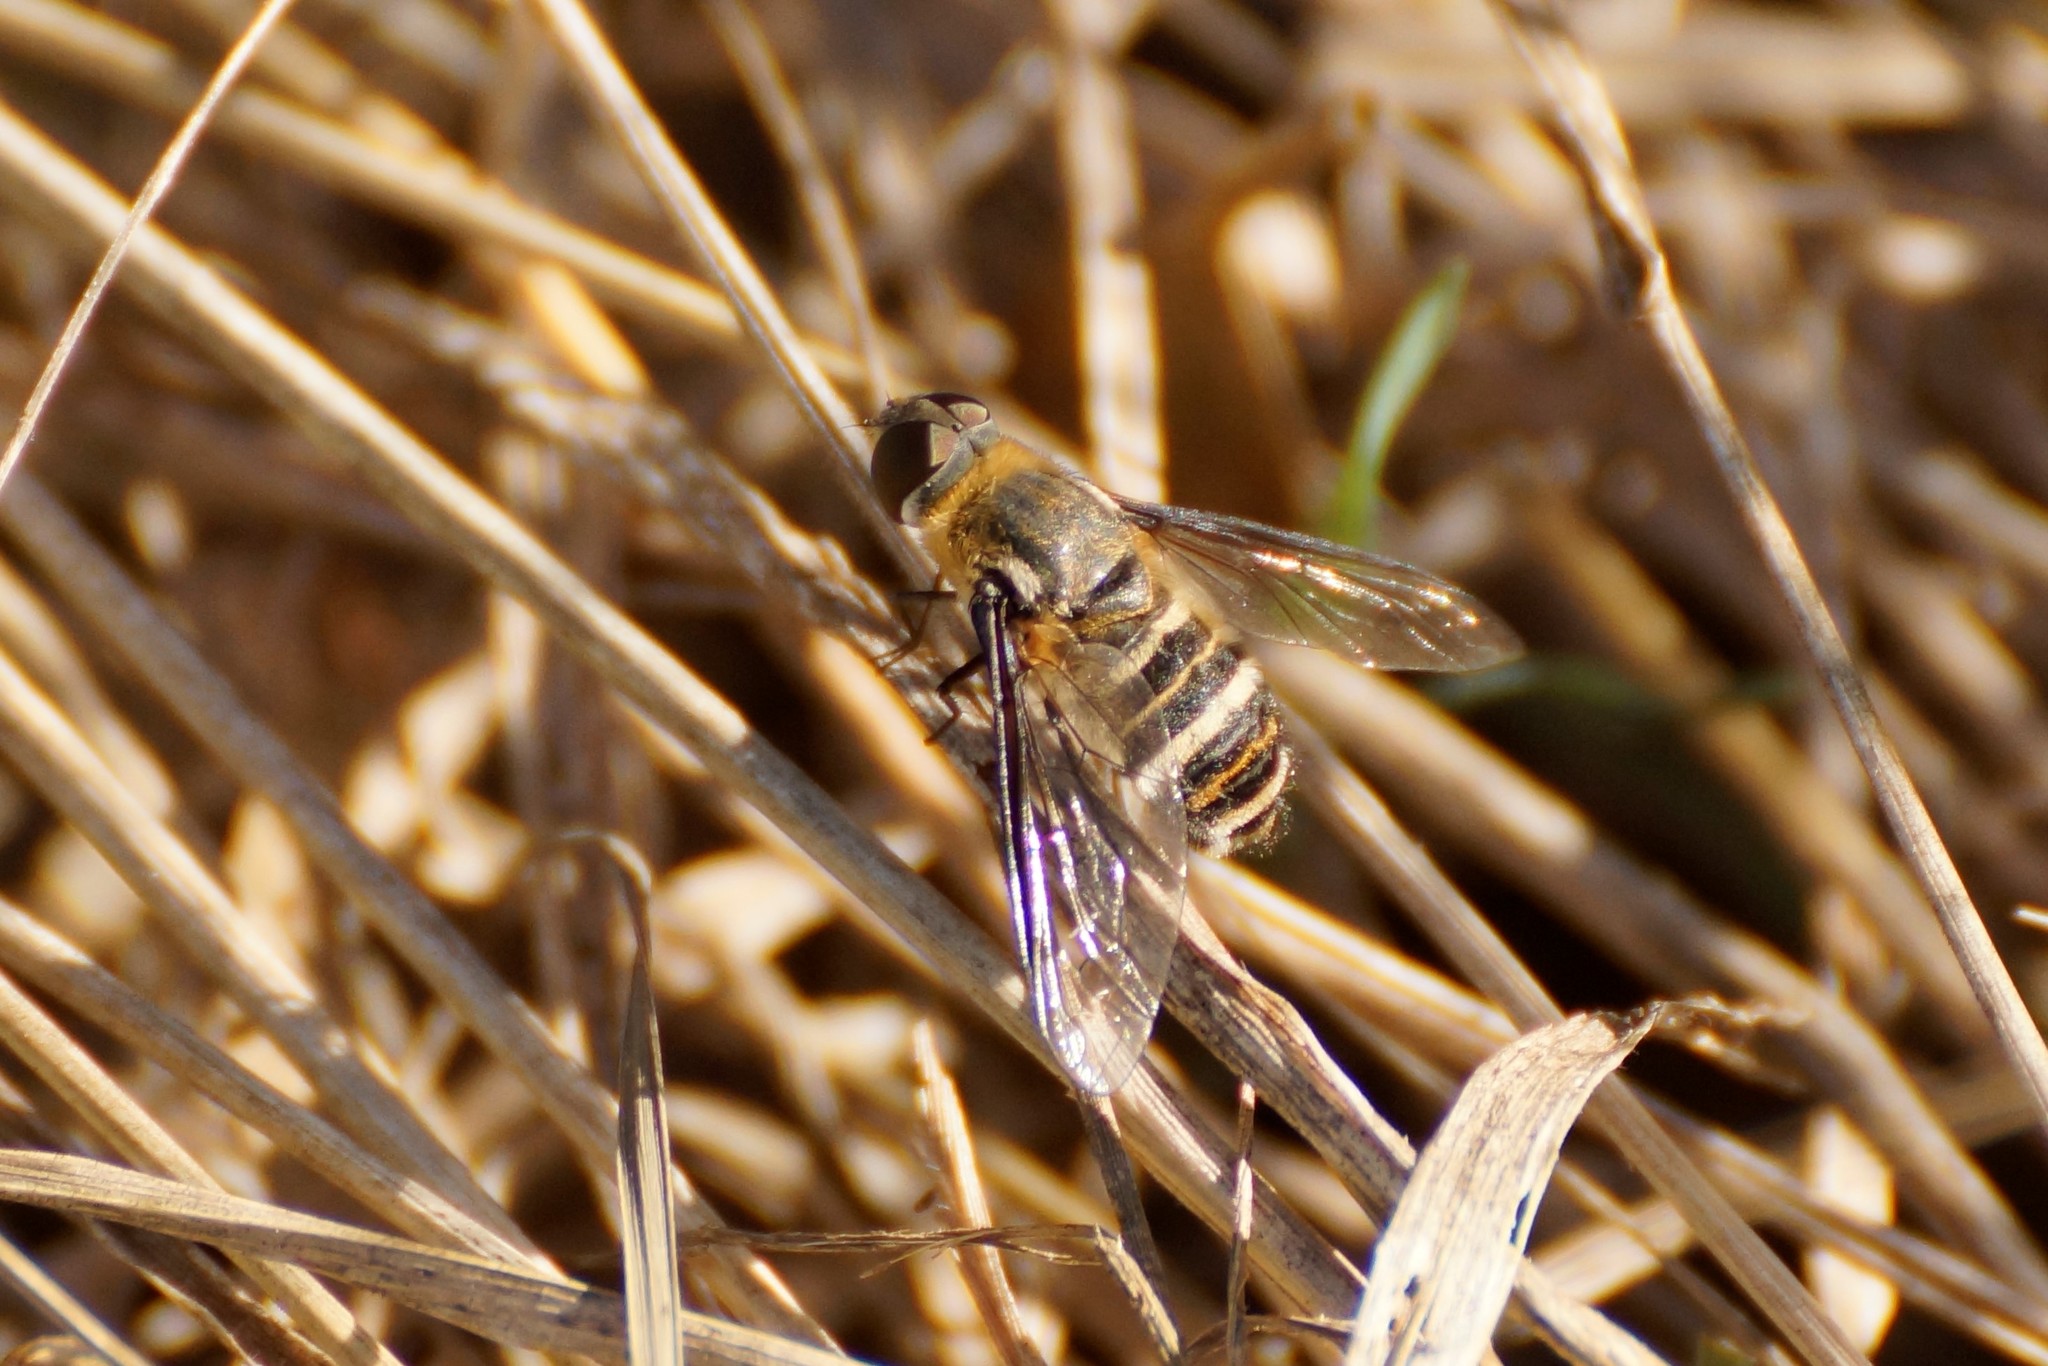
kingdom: Animalia
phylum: Arthropoda
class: Insecta
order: Diptera
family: Bombyliidae
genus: Villa
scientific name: Villa
